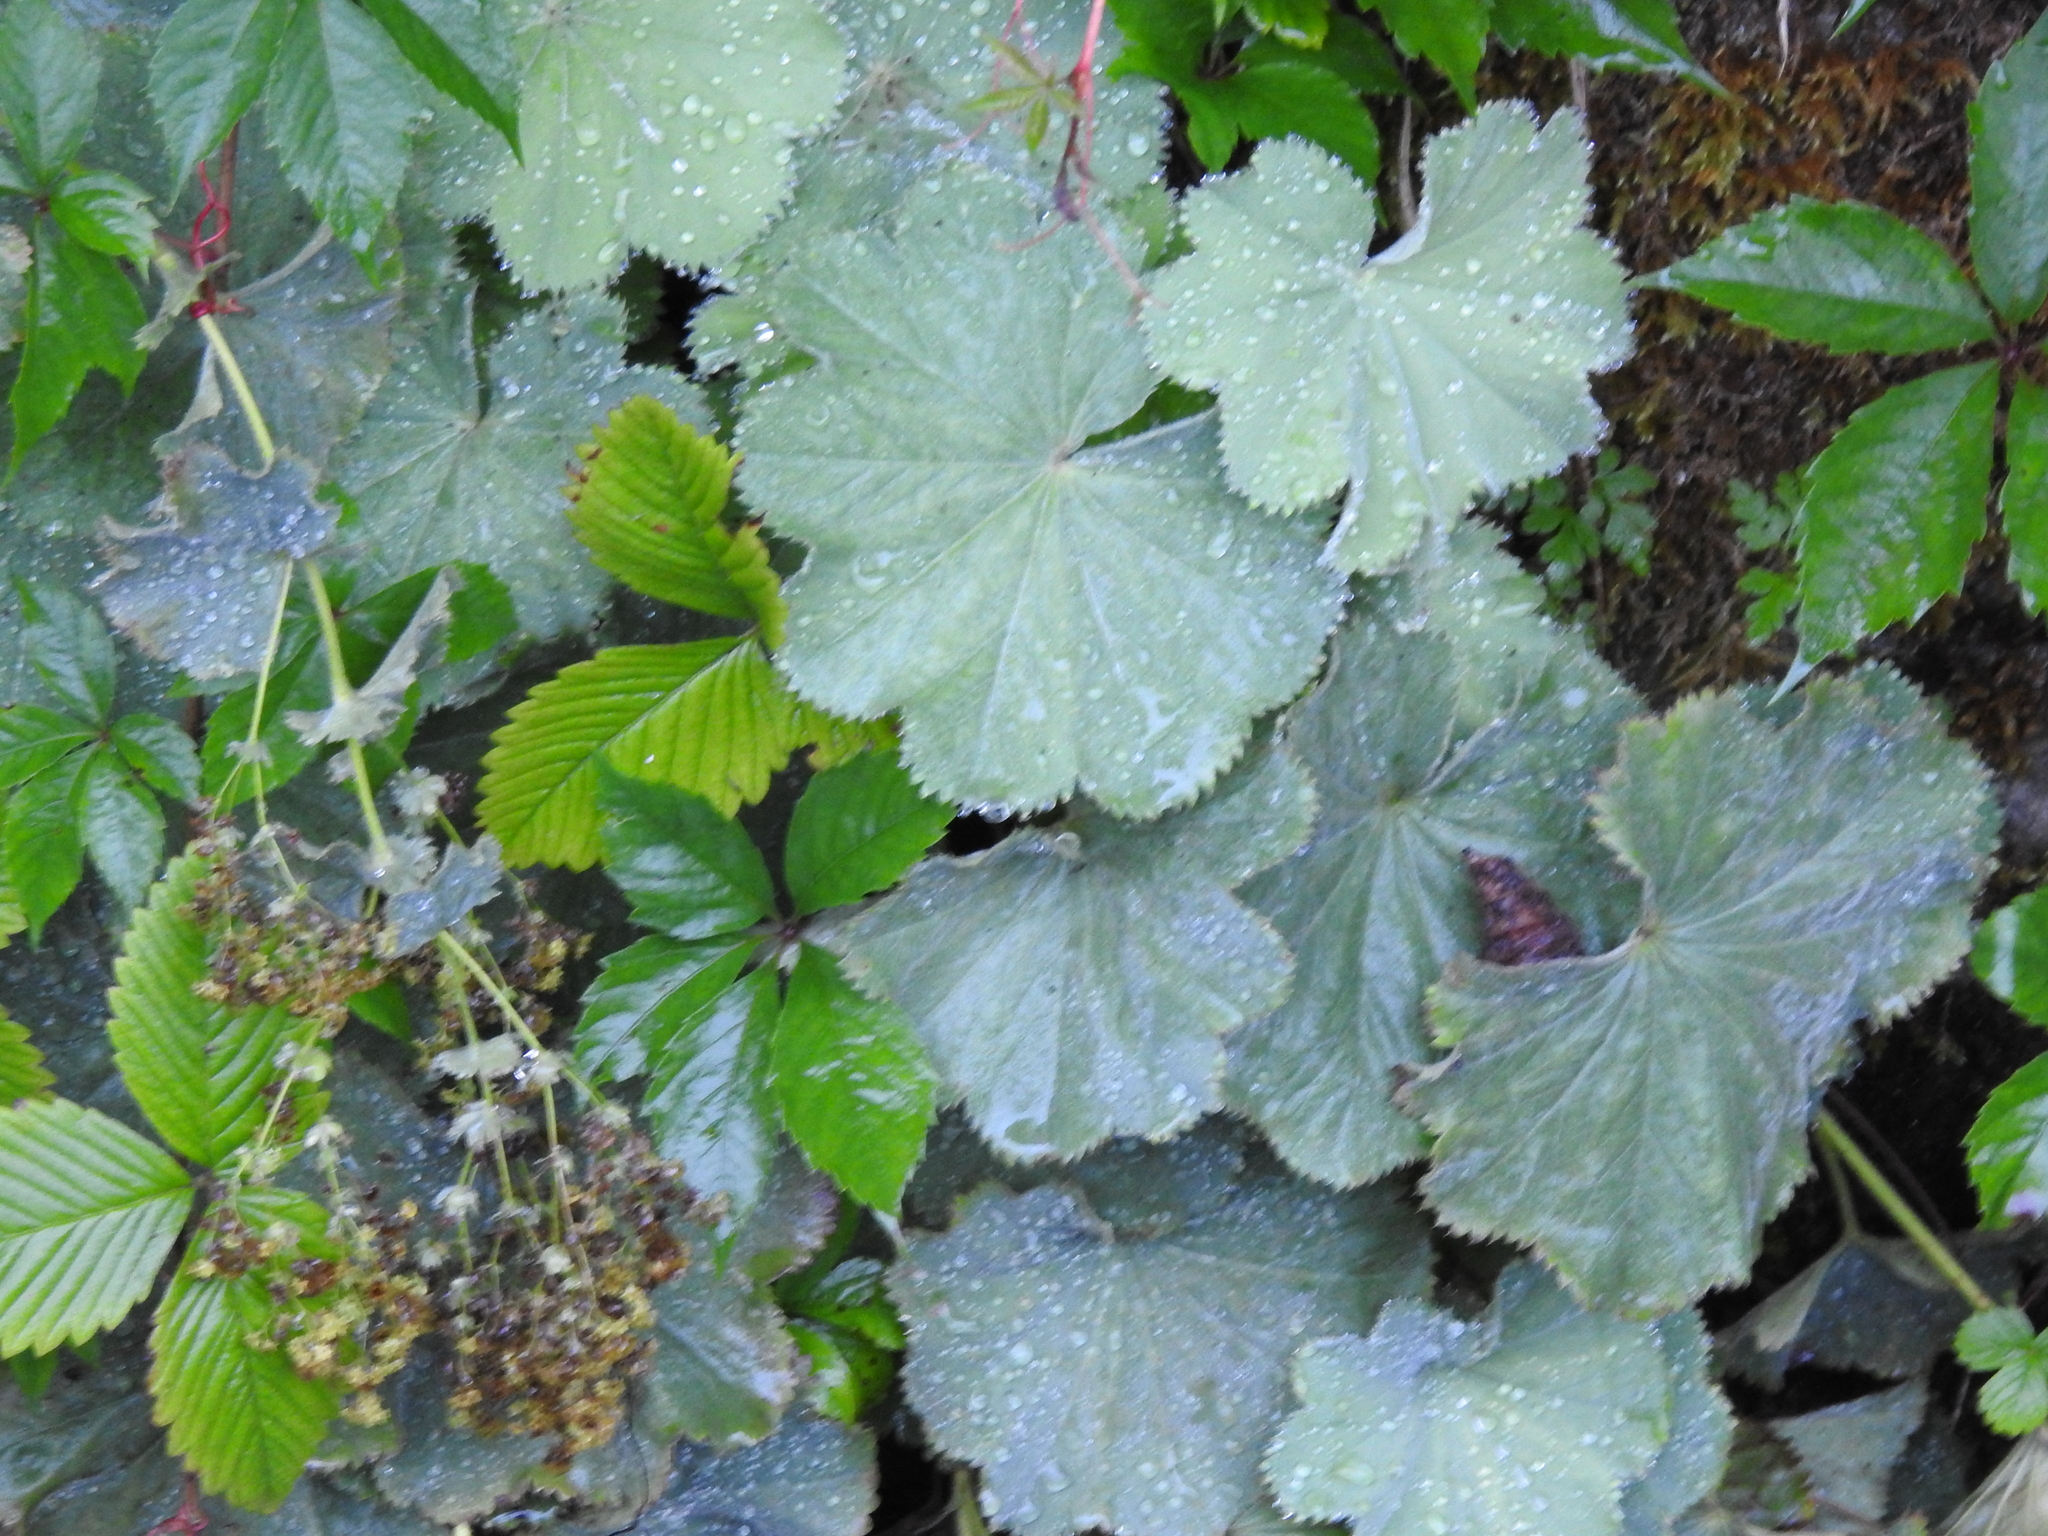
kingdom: Plantae
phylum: Tracheophyta
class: Magnoliopsida
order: Rosales
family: Rosaceae
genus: Alchemilla
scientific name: Alchemilla mollis
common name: Lady's-mantle
